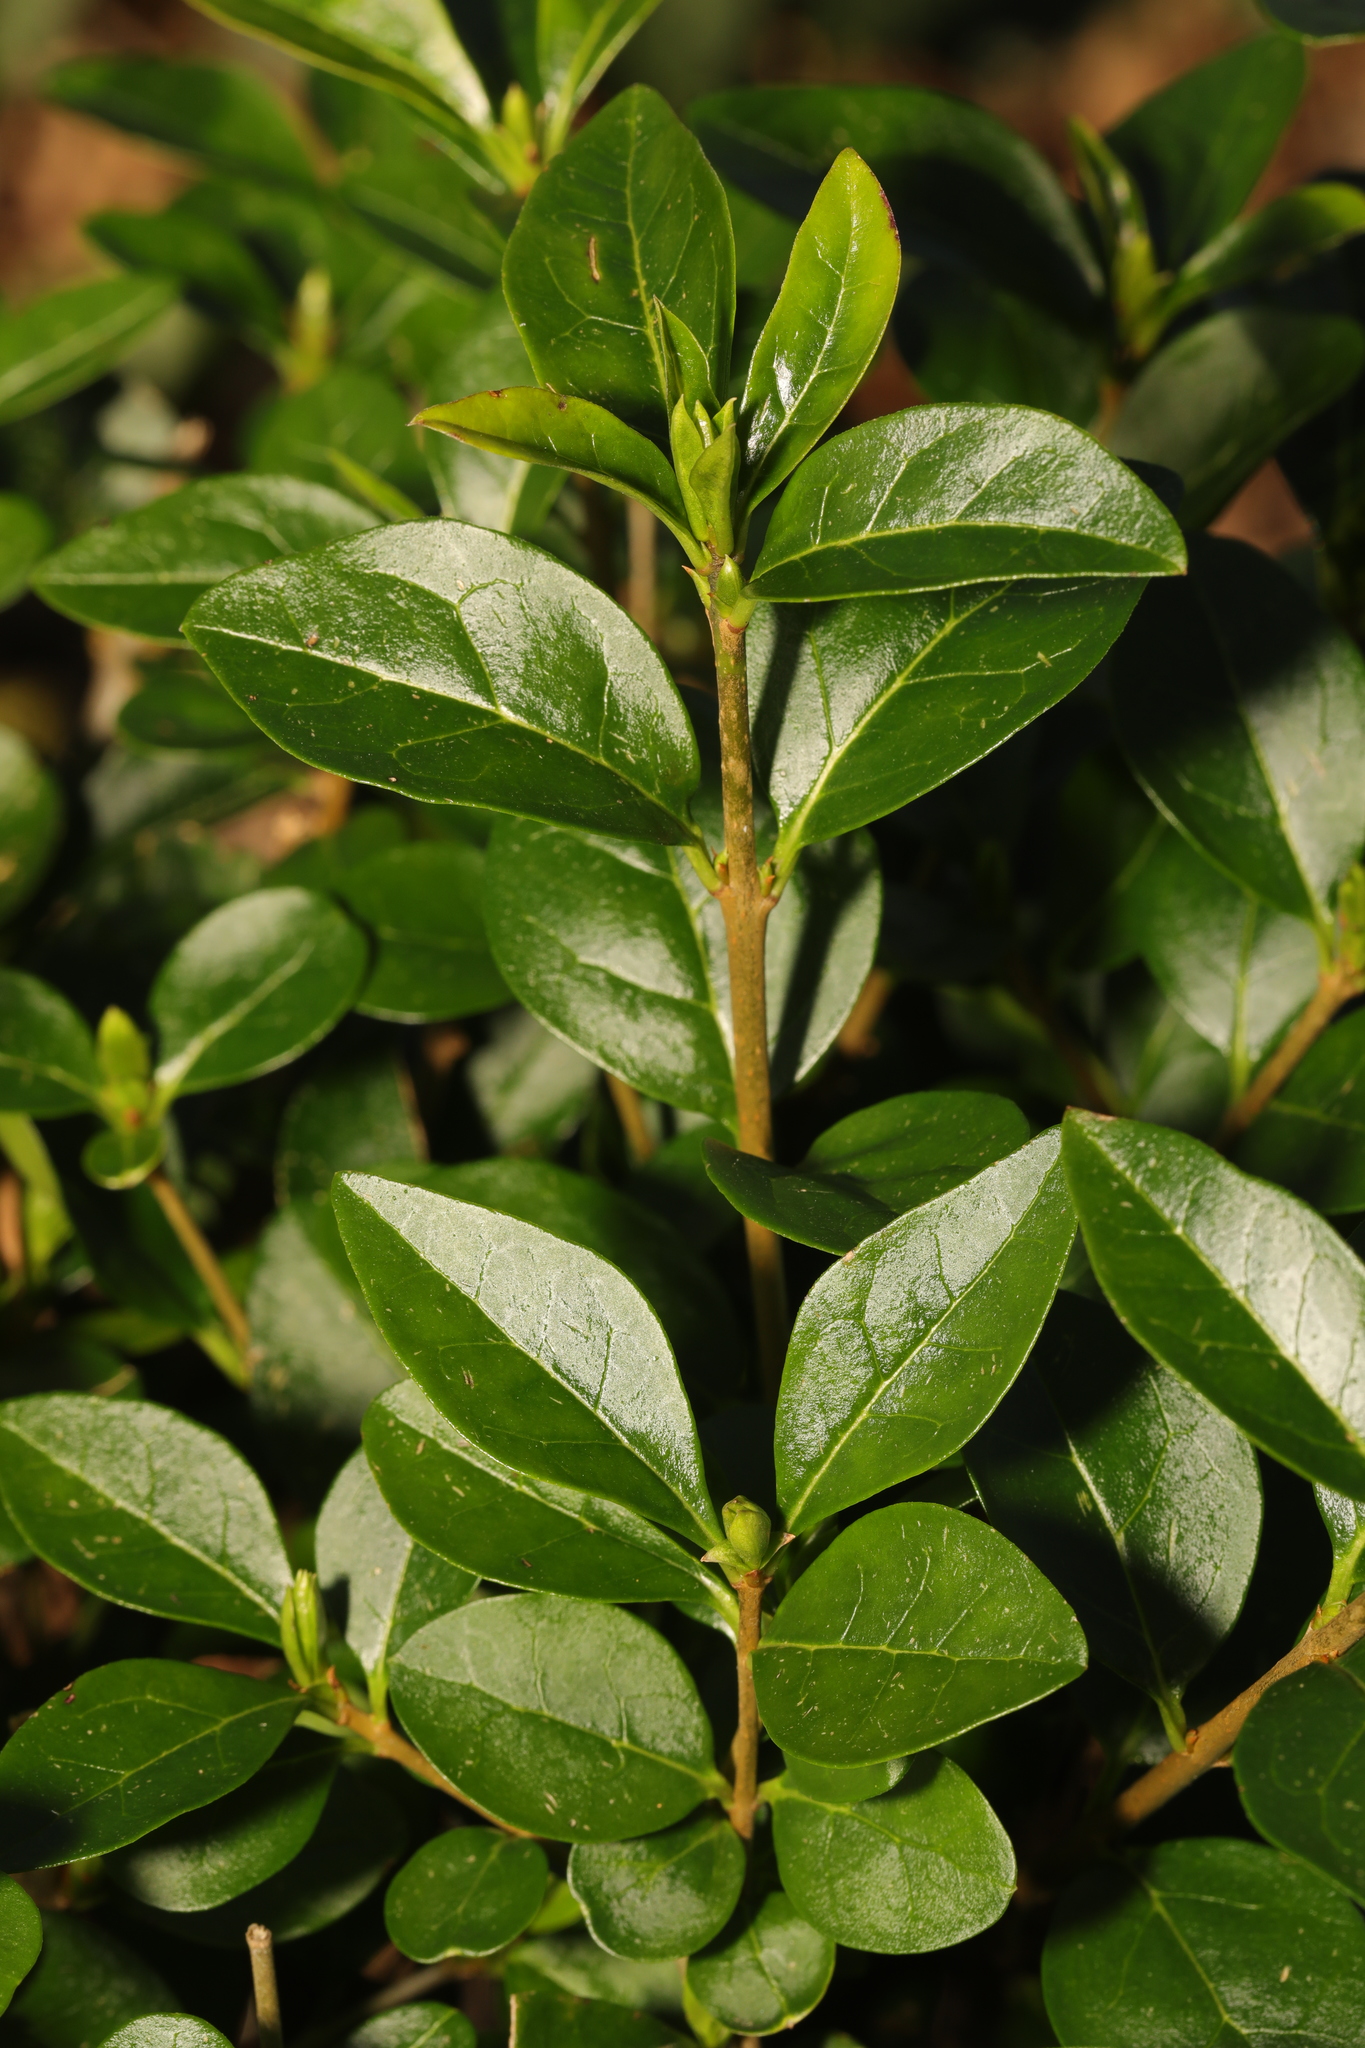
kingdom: Plantae
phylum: Tracheophyta
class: Magnoliopsida
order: Lamiales
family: Oleaceae
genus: Ligustrum
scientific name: Ligustrum ovalifolium
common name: California privet
